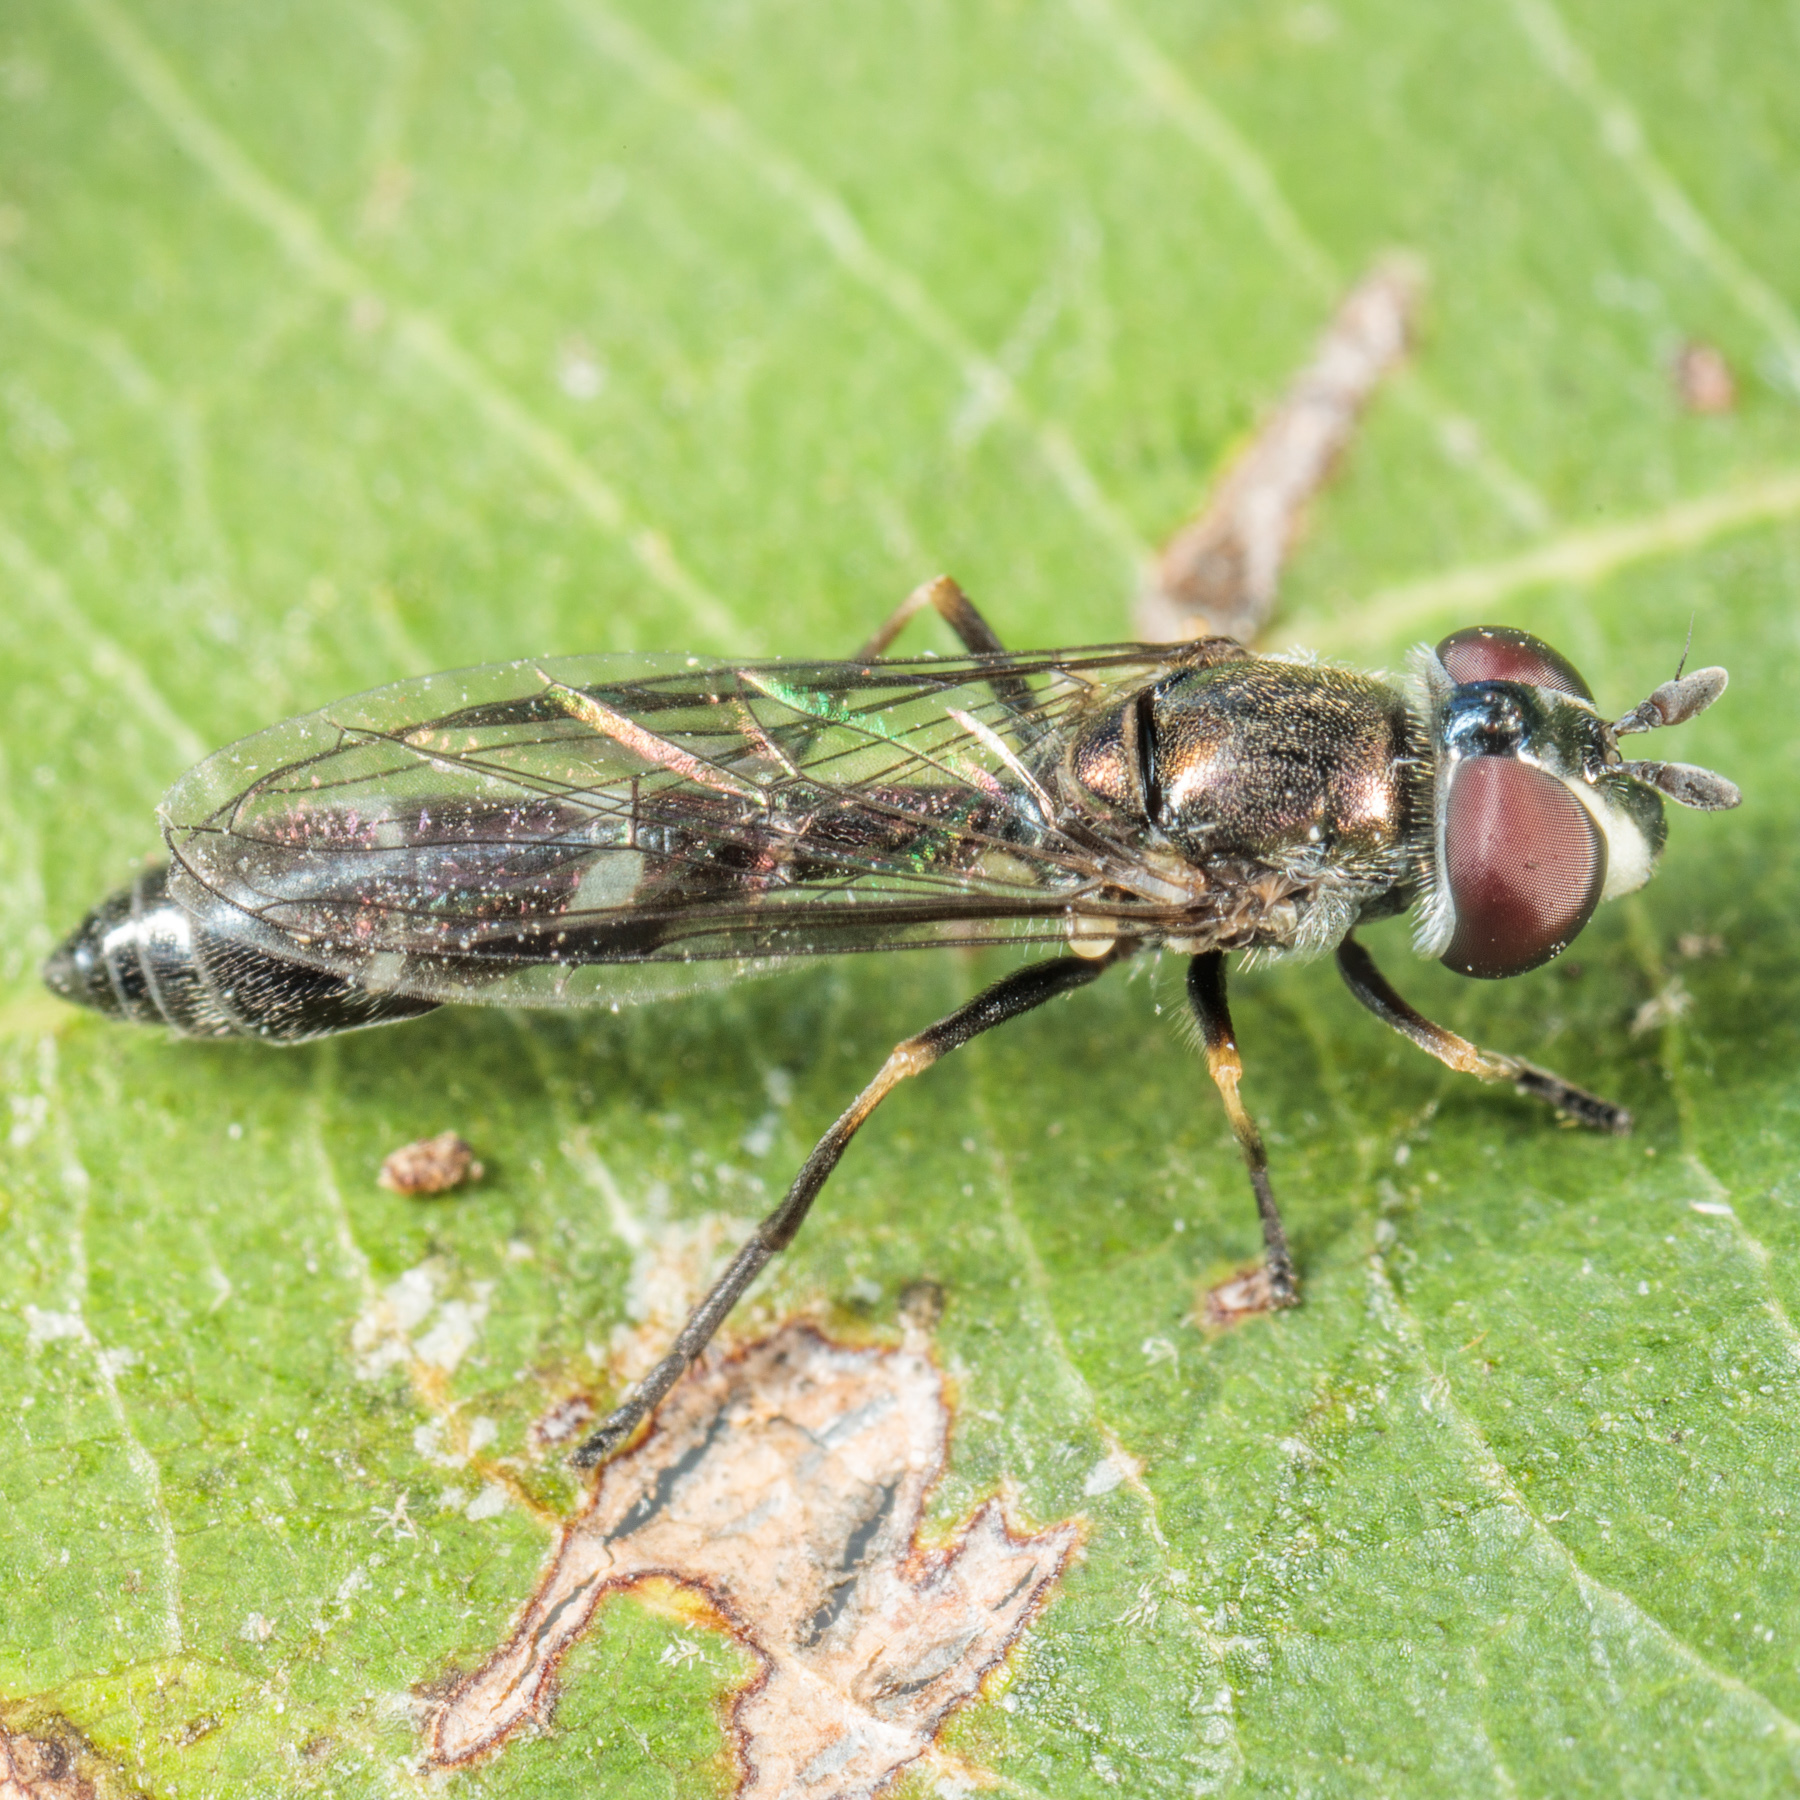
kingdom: Animalia
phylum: Arthropoda
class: Insecta
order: Diptera
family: Syrphidae
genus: Dioprosopa
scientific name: Dioprosopa clavatus
